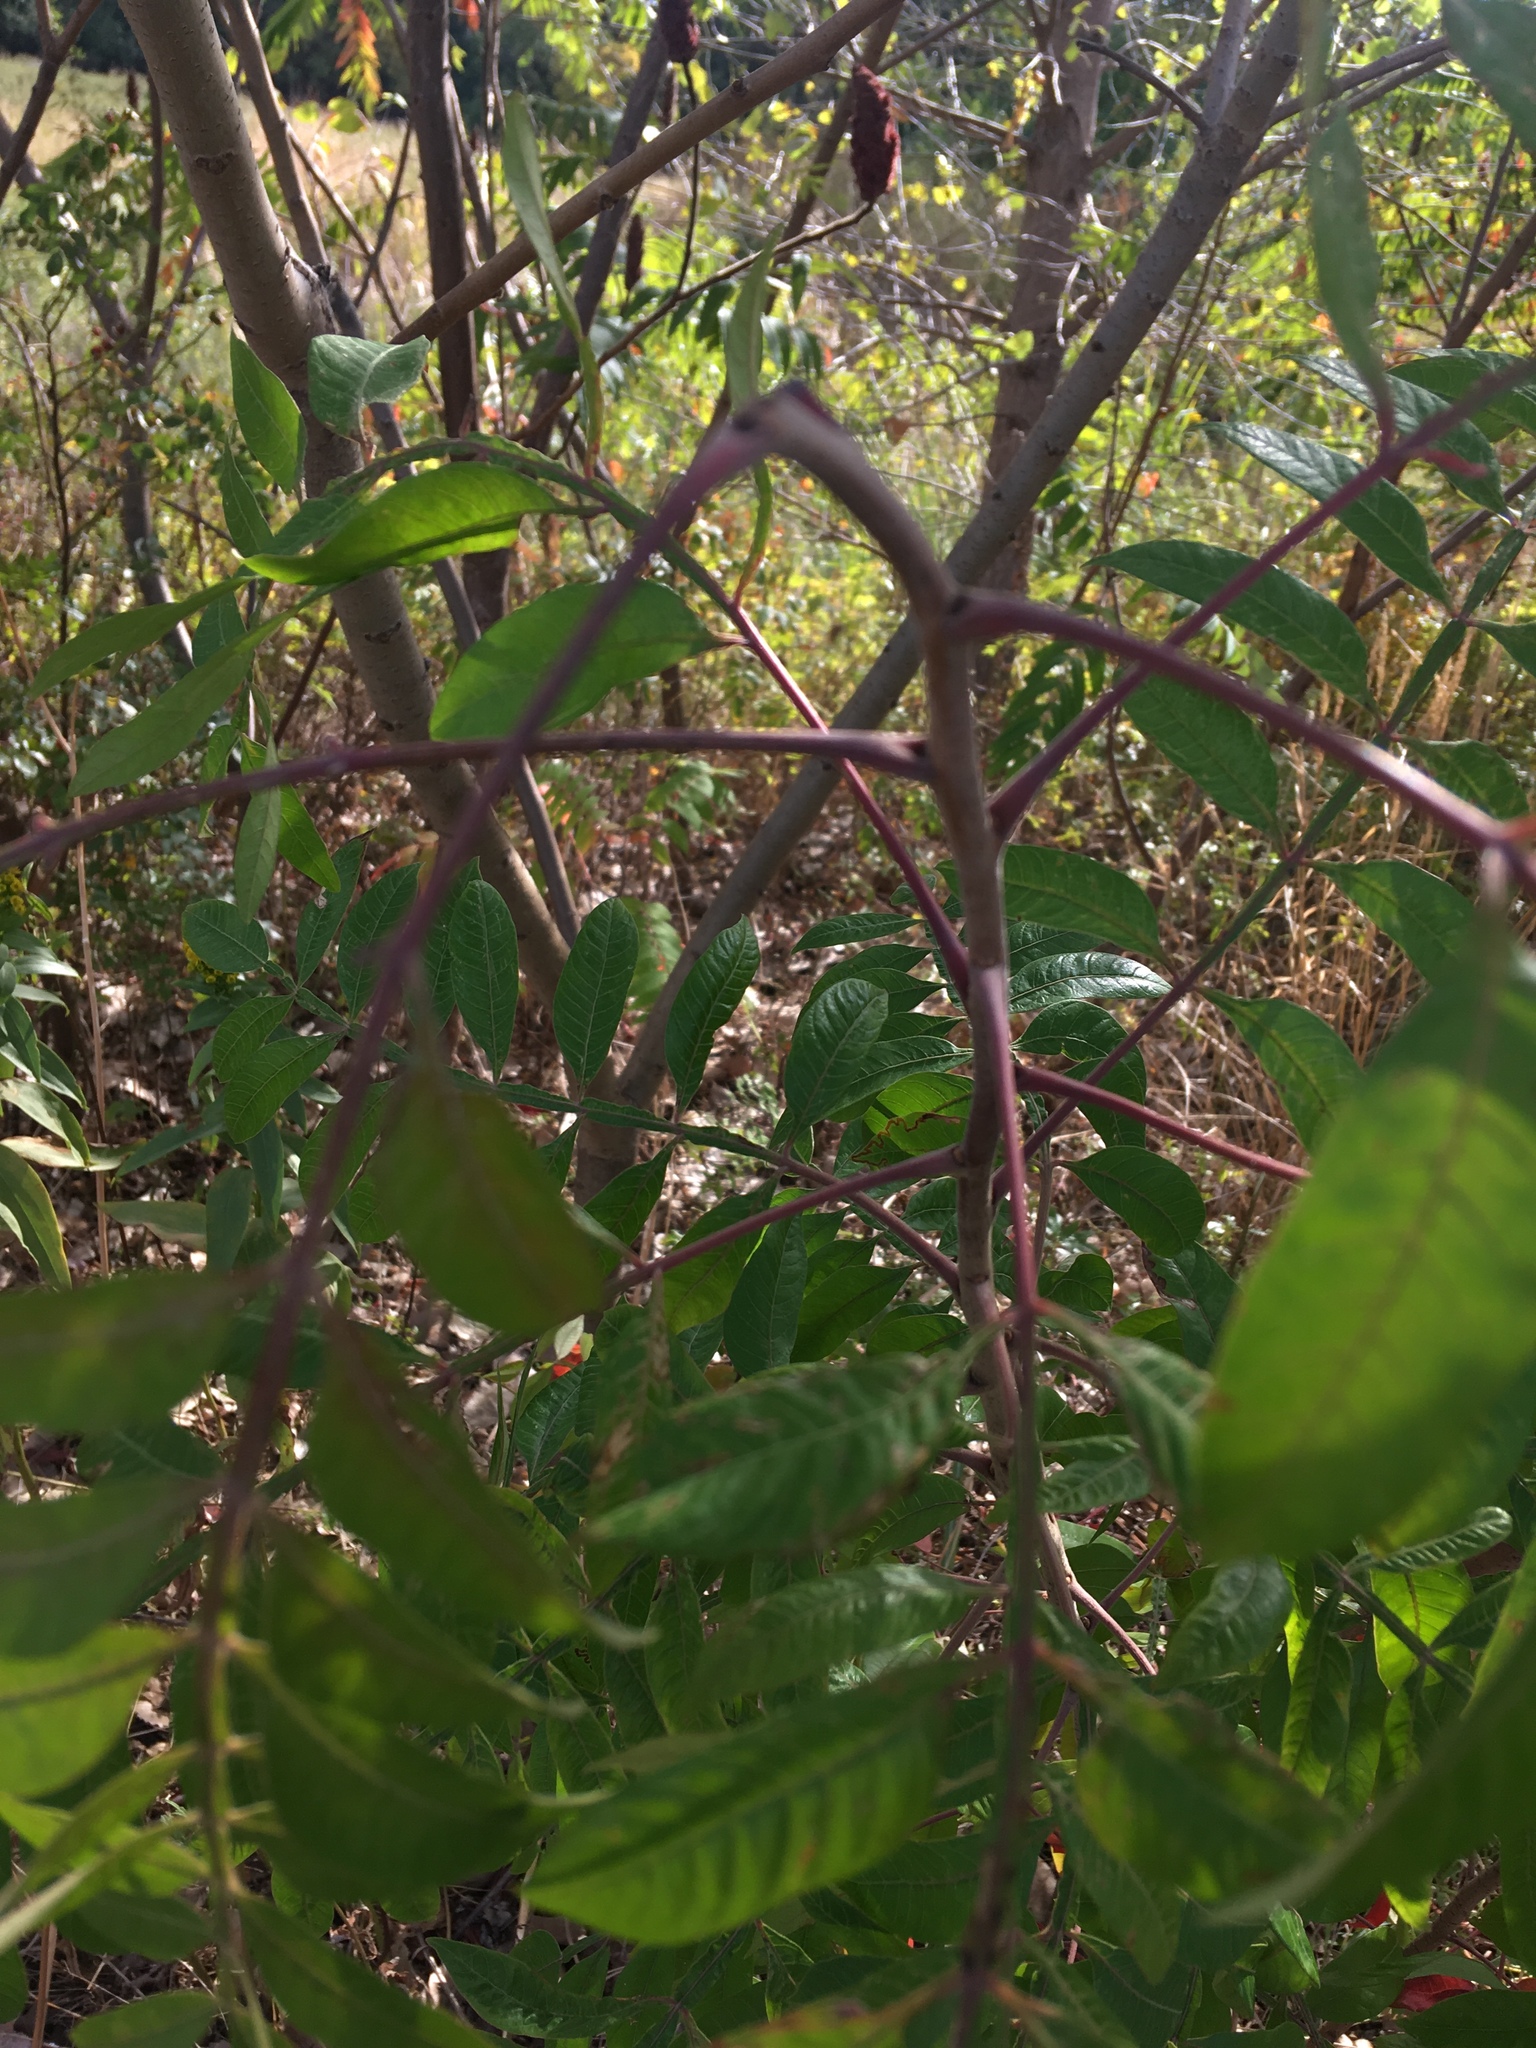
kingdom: Plantae
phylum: Tracheophyta
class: Magnoliopsida
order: Sapindales
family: Anacardiaceae
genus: Rhus
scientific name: Rhus copallina
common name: Shining sumac
